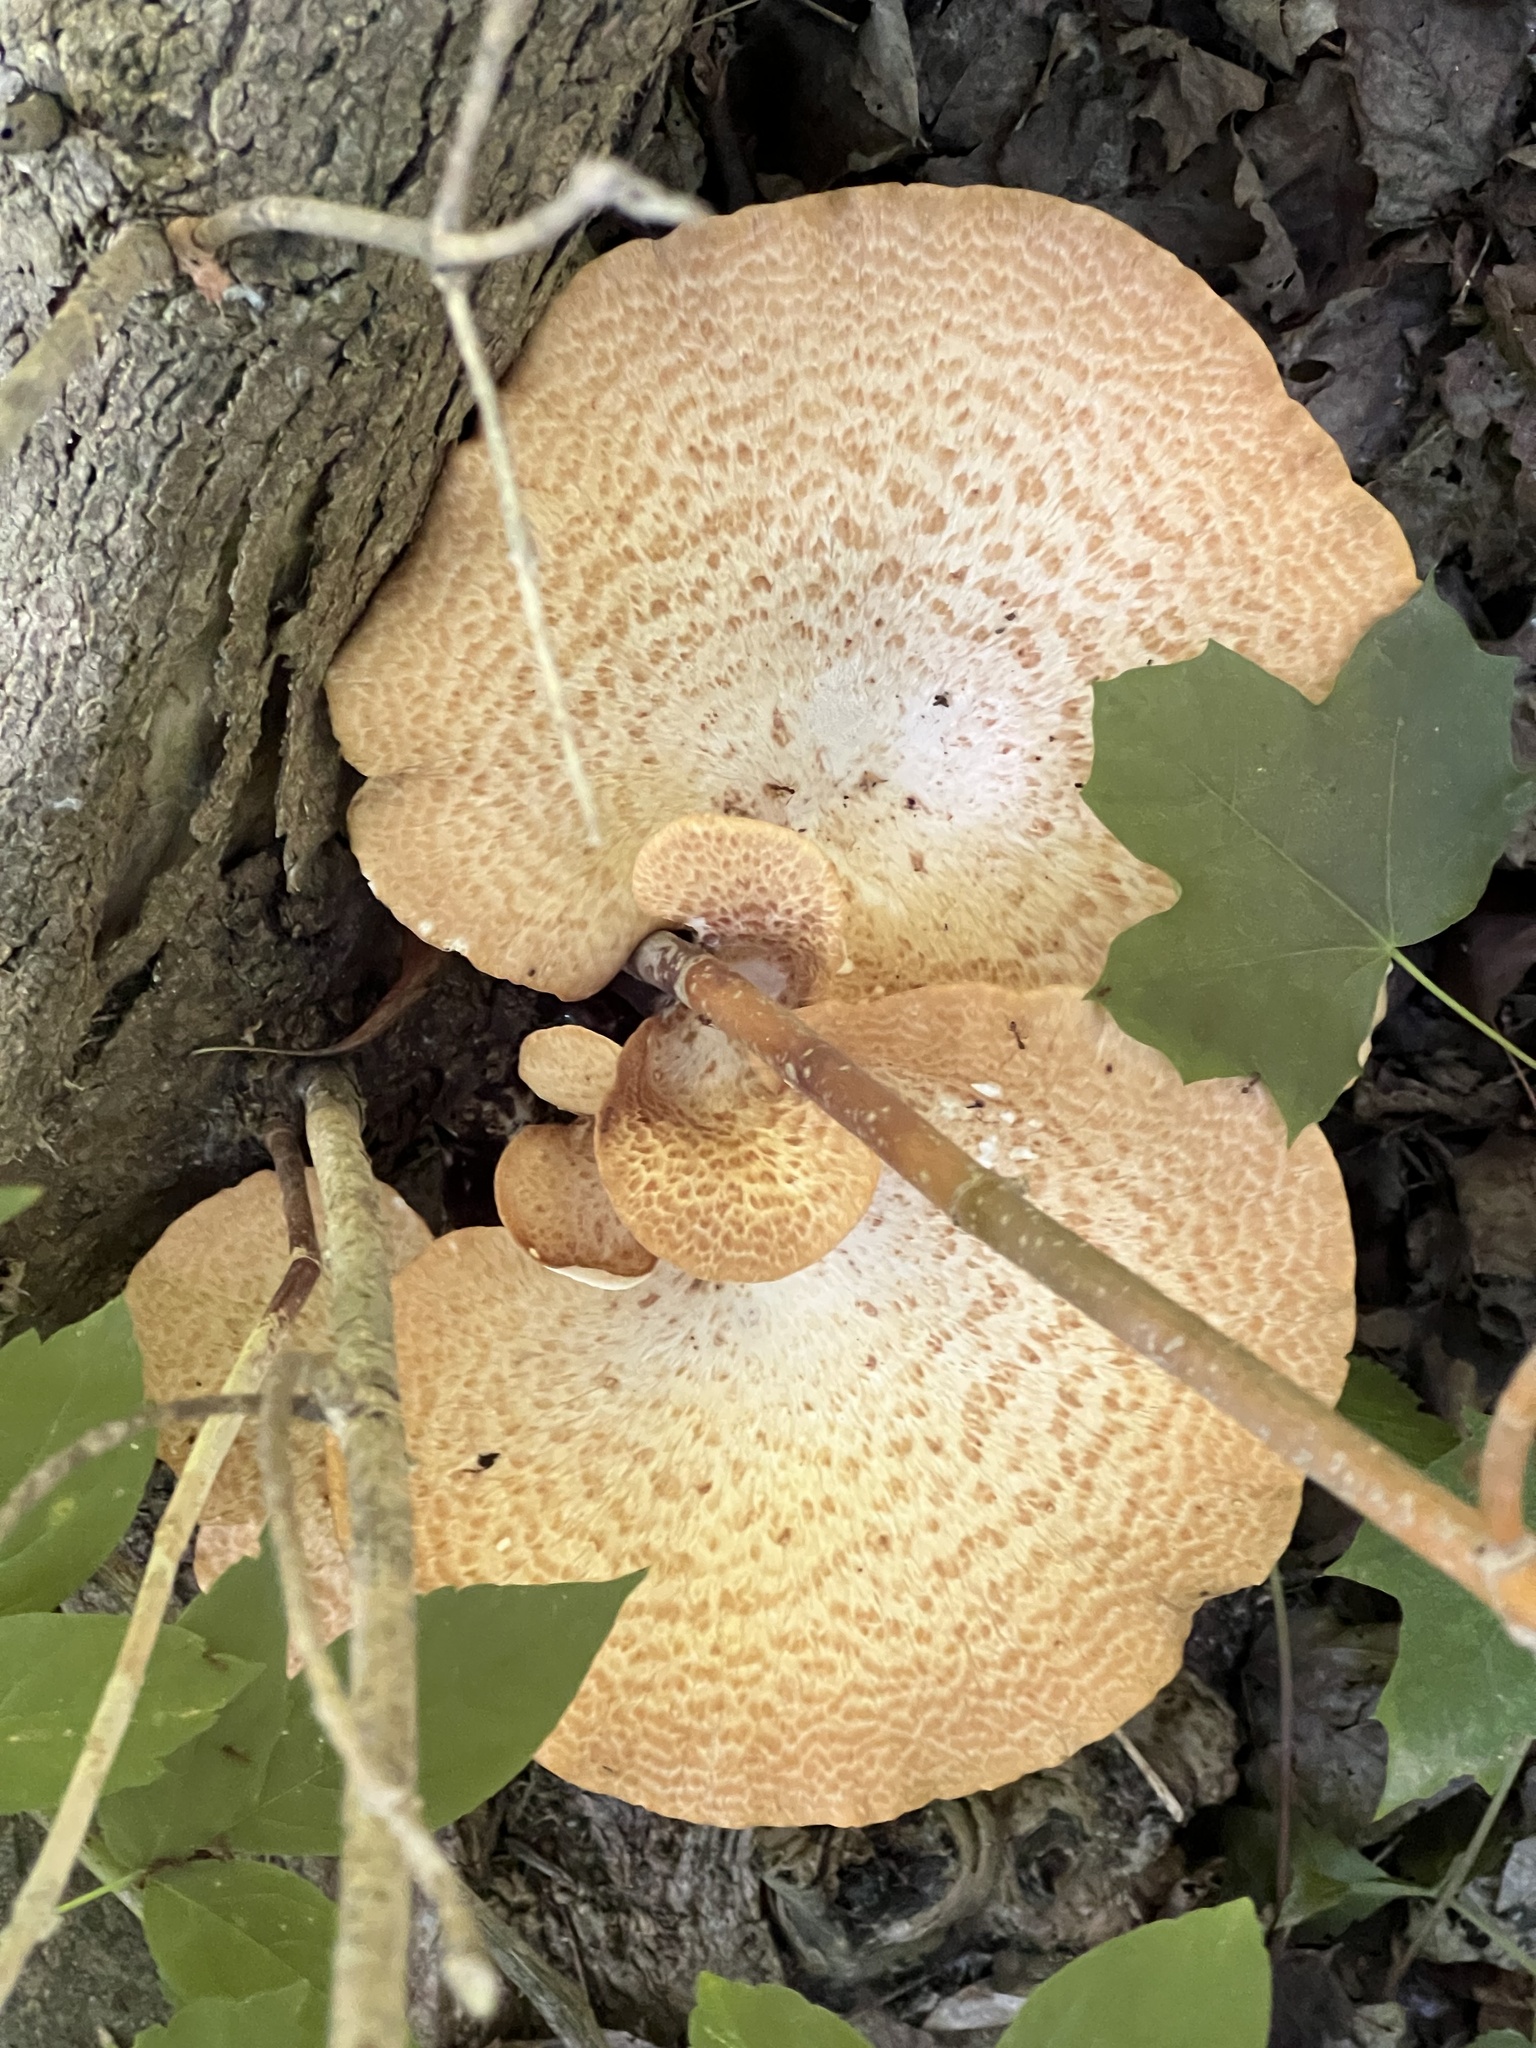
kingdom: Fungi
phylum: Basidiomycota
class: Agaricomycetes
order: Polyporales
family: Polyporaceae
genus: Cerioporus
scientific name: Cerioporus squamosus
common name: Dryad's saddle
